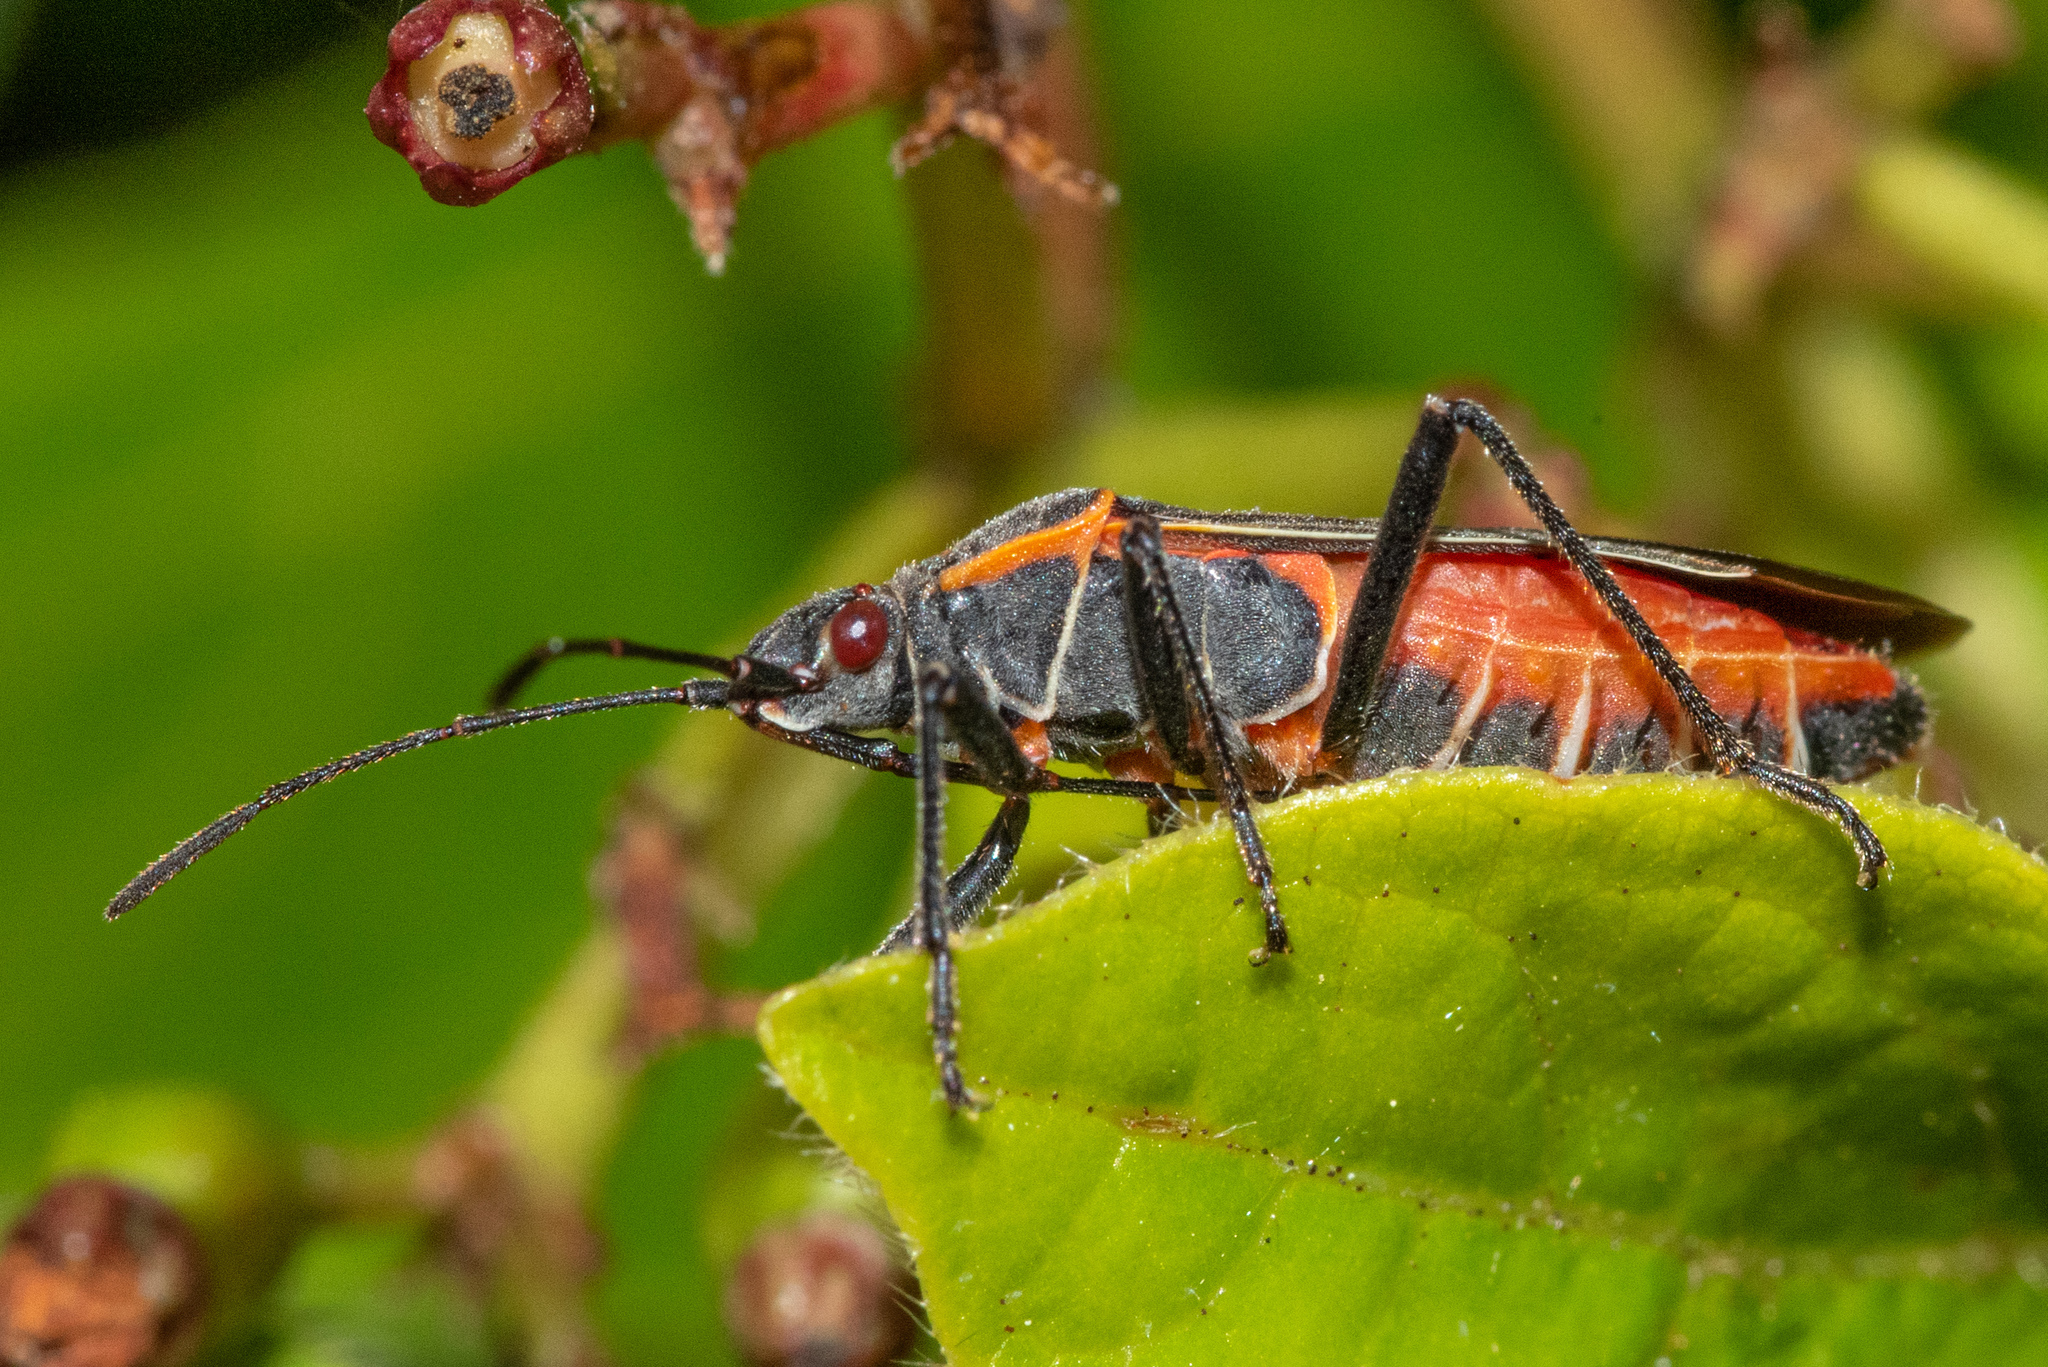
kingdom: Animalia
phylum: Arthropoda
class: Insecta
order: Hemiptera
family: Rhopalidae
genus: Boisea
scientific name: Boisea rubrolineata
